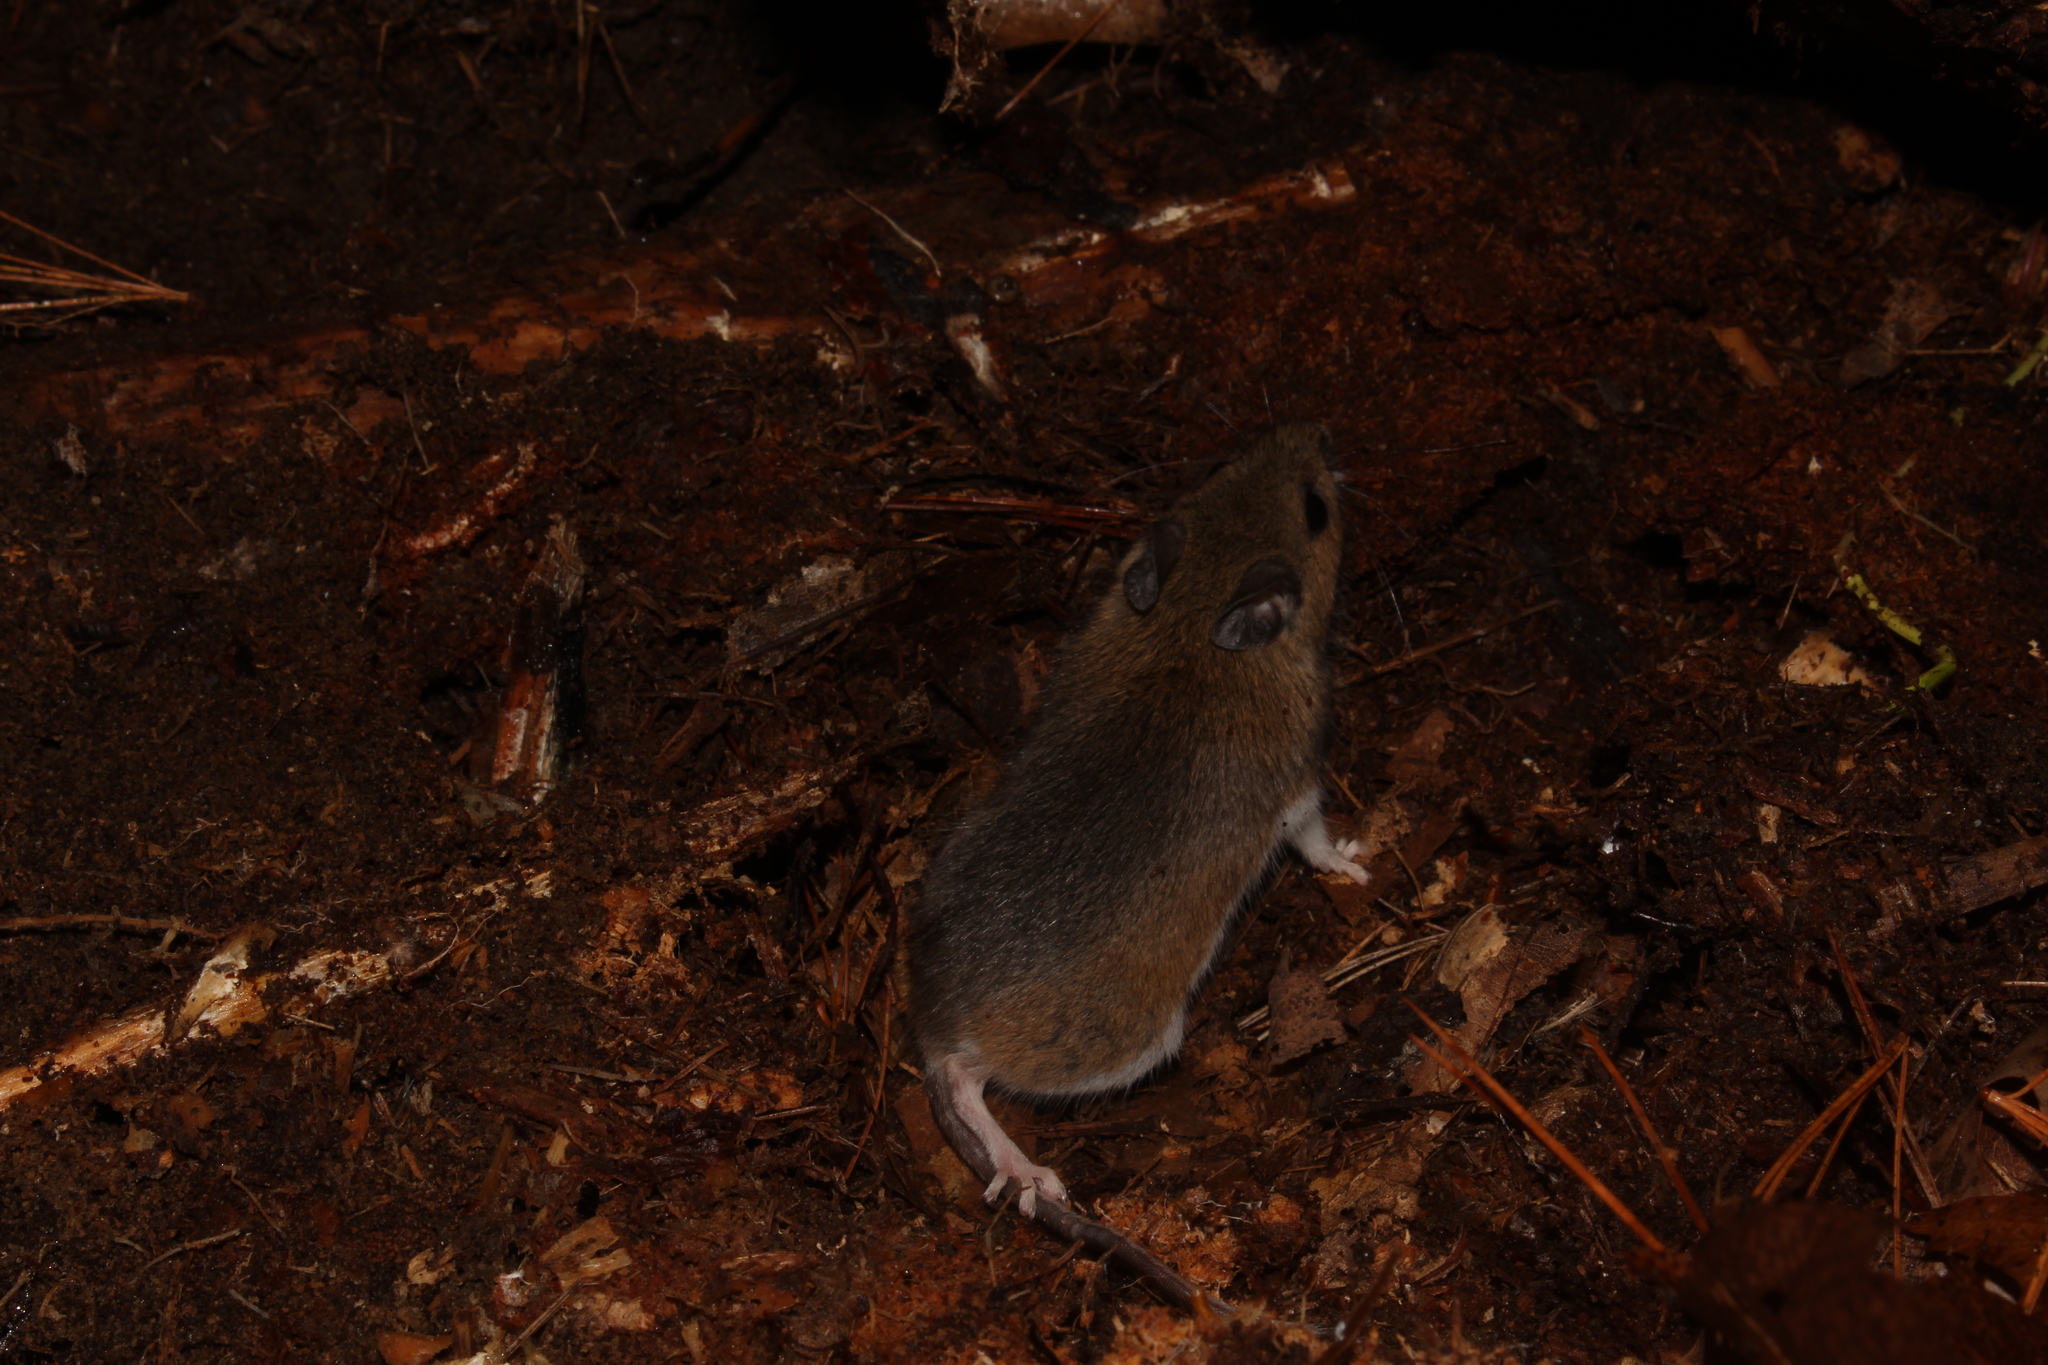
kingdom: Animalia
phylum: Chordata
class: Mammalia
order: Rodentia
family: Cricetidae
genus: Peromyscus
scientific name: Peromyscus leucopus
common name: White-footed deermouse
